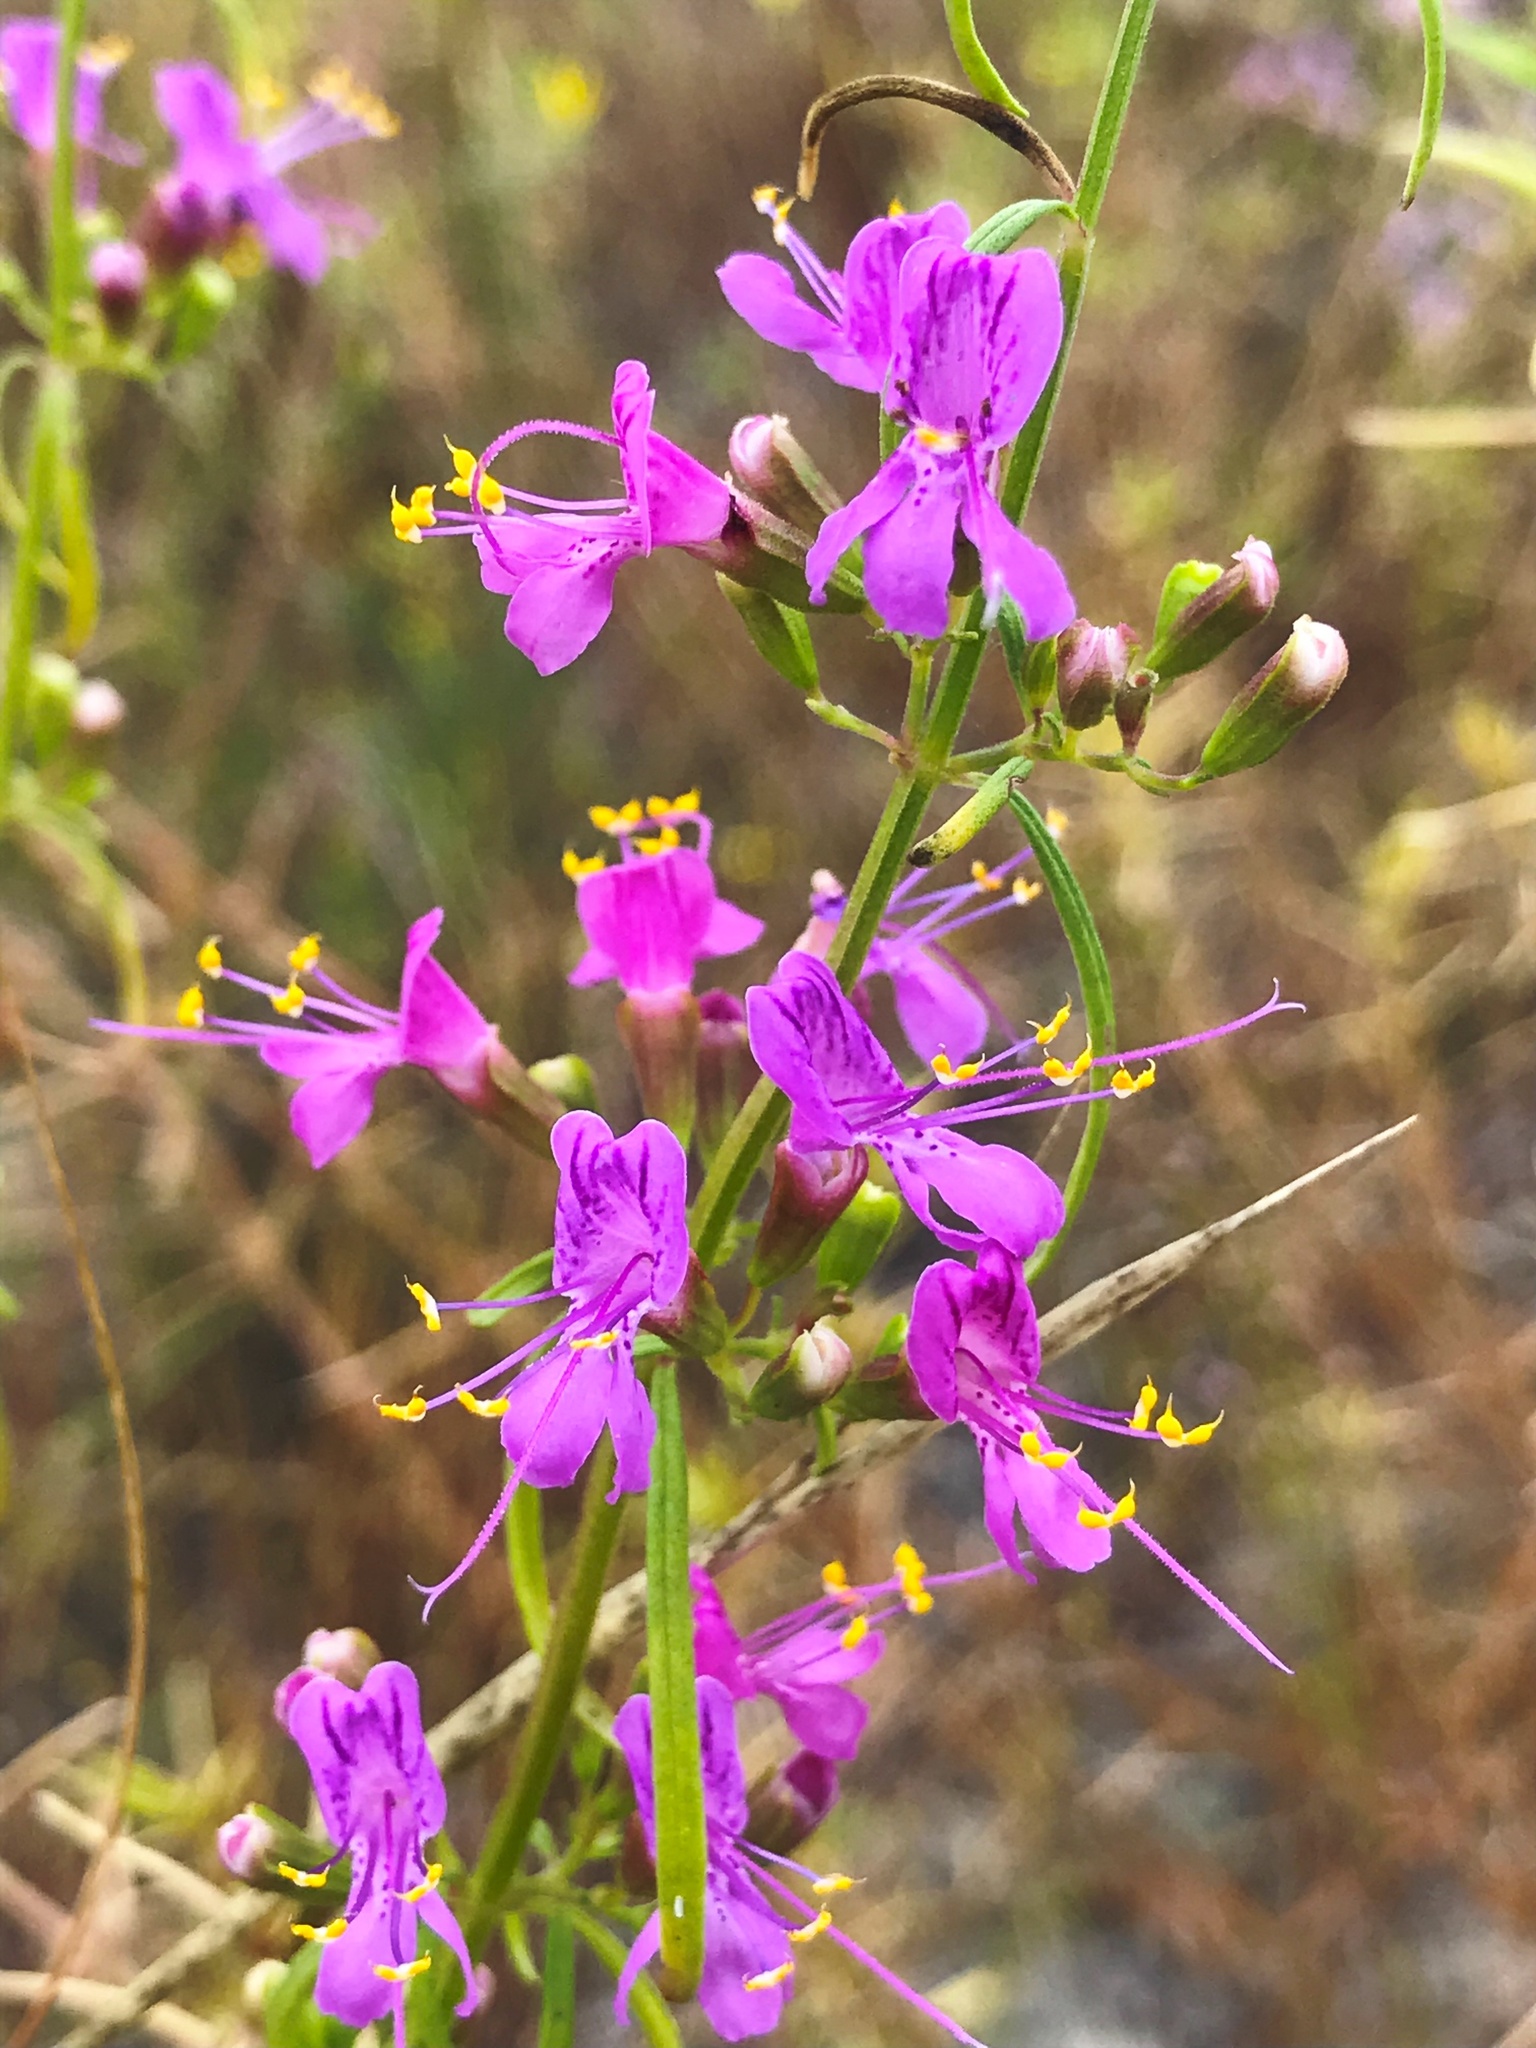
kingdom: Plantae
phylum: Tracheophyta
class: Magnoliopsida
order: Lamiales
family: Lamiaceae
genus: Dicerandra
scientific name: Dicerandra linearifolia
